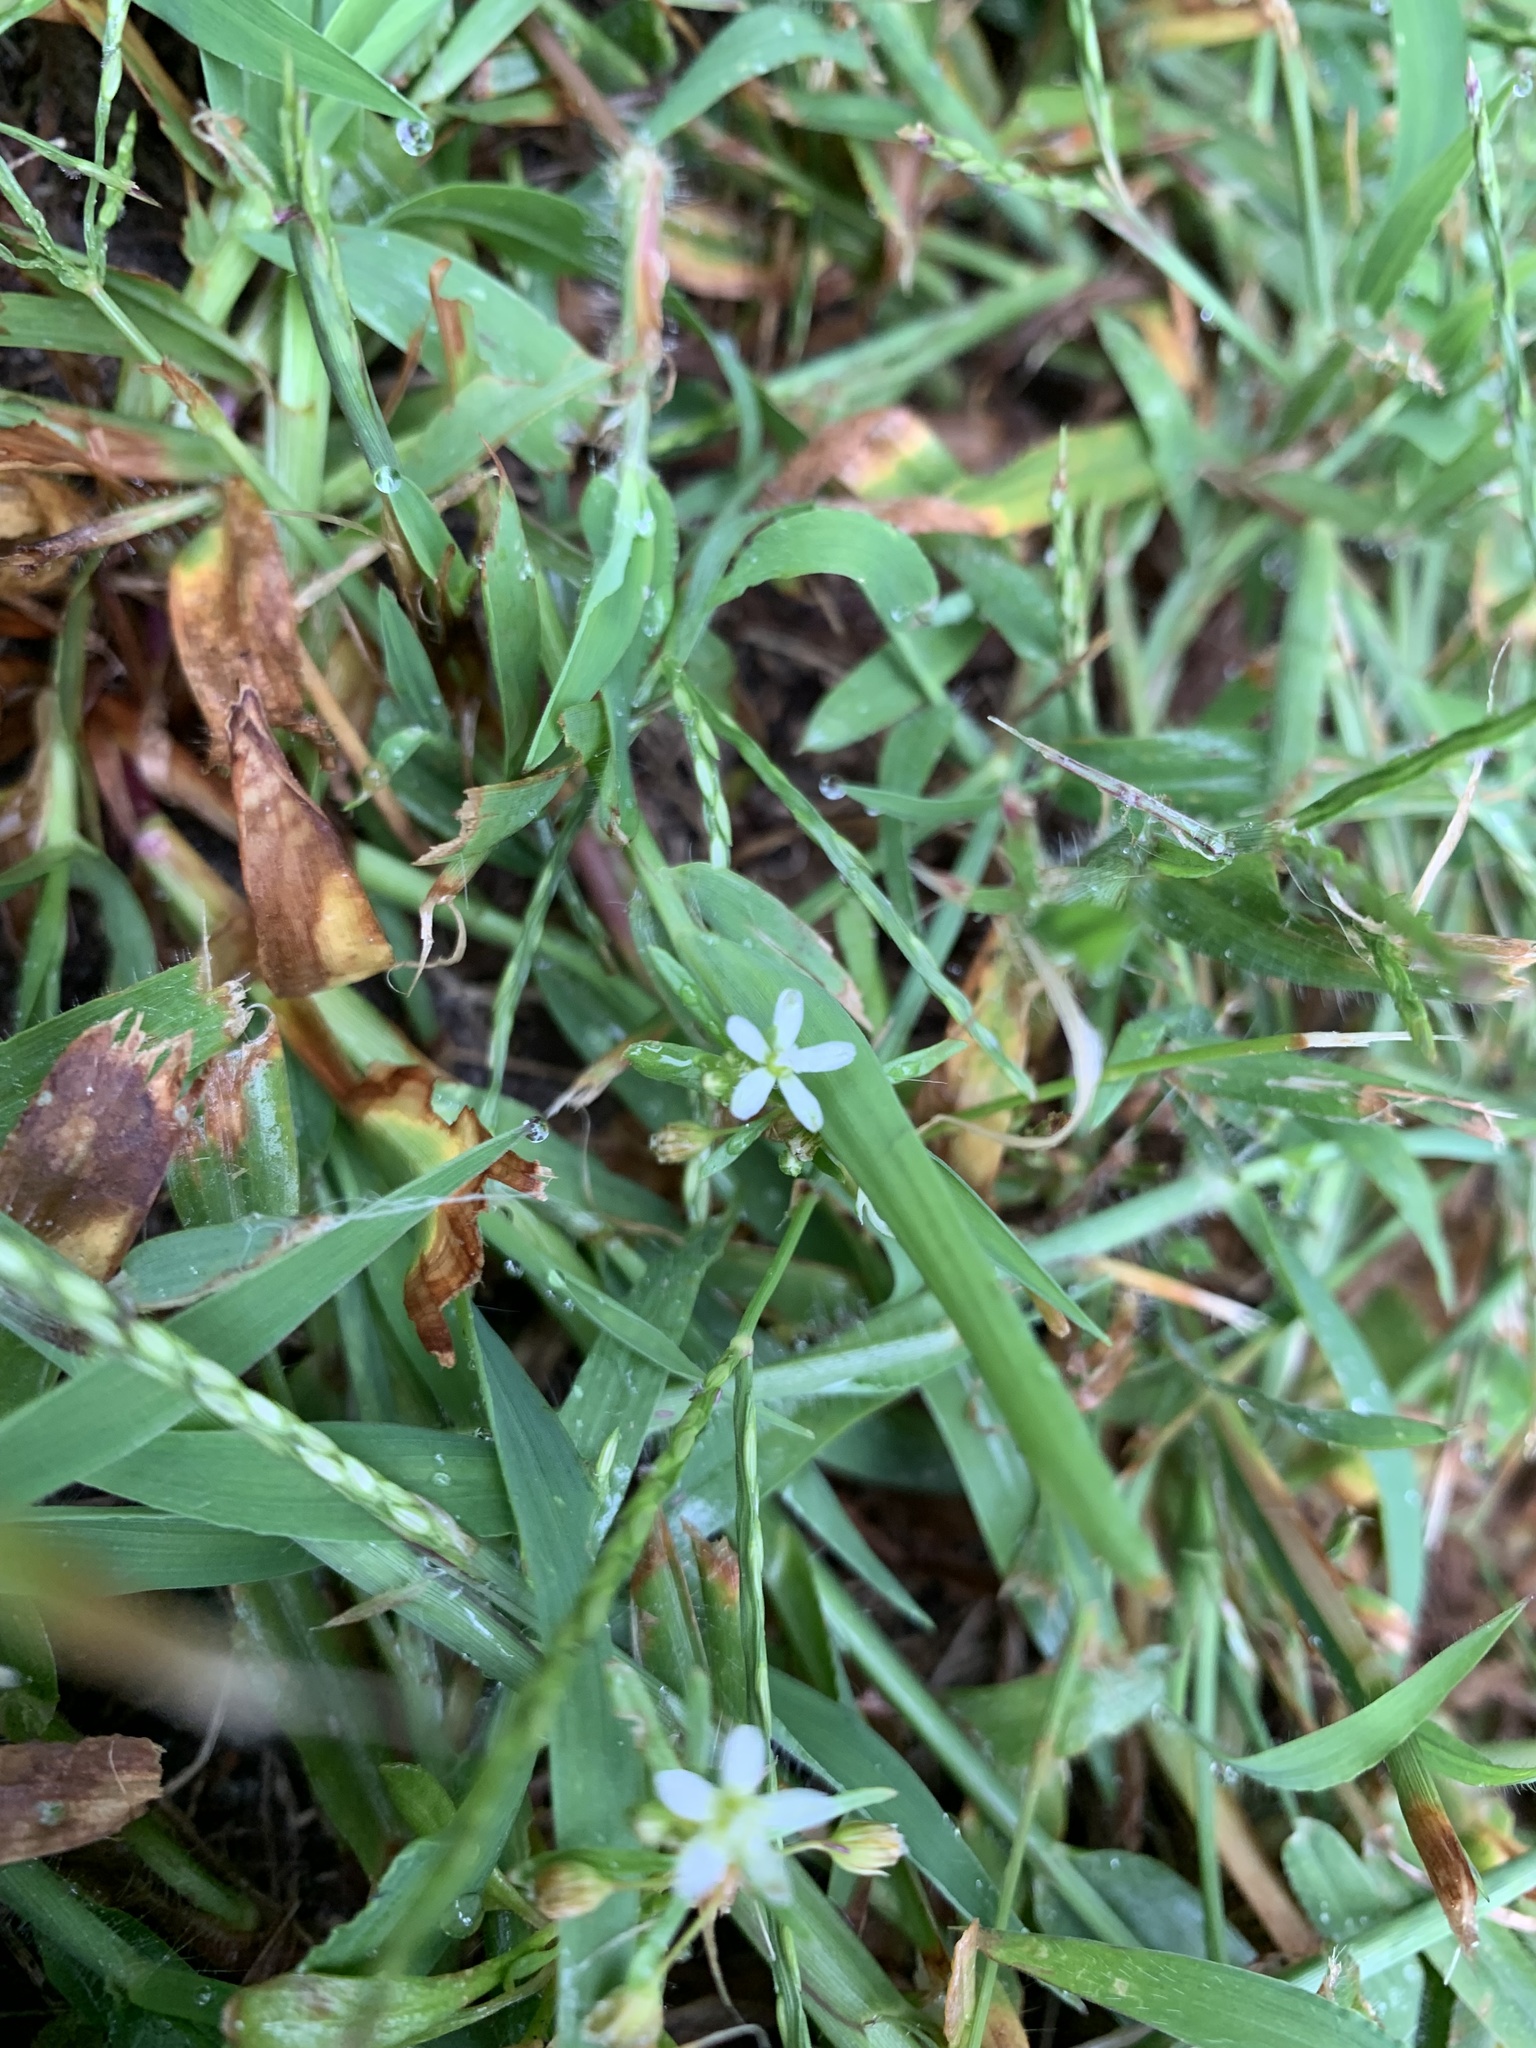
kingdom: Plantae
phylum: Tracheophyta
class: Magnoliopsida
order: Caryophyllales
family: Molluginaceae
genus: Mollugo
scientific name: Mollugo verticillata
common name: Green carpetweed
